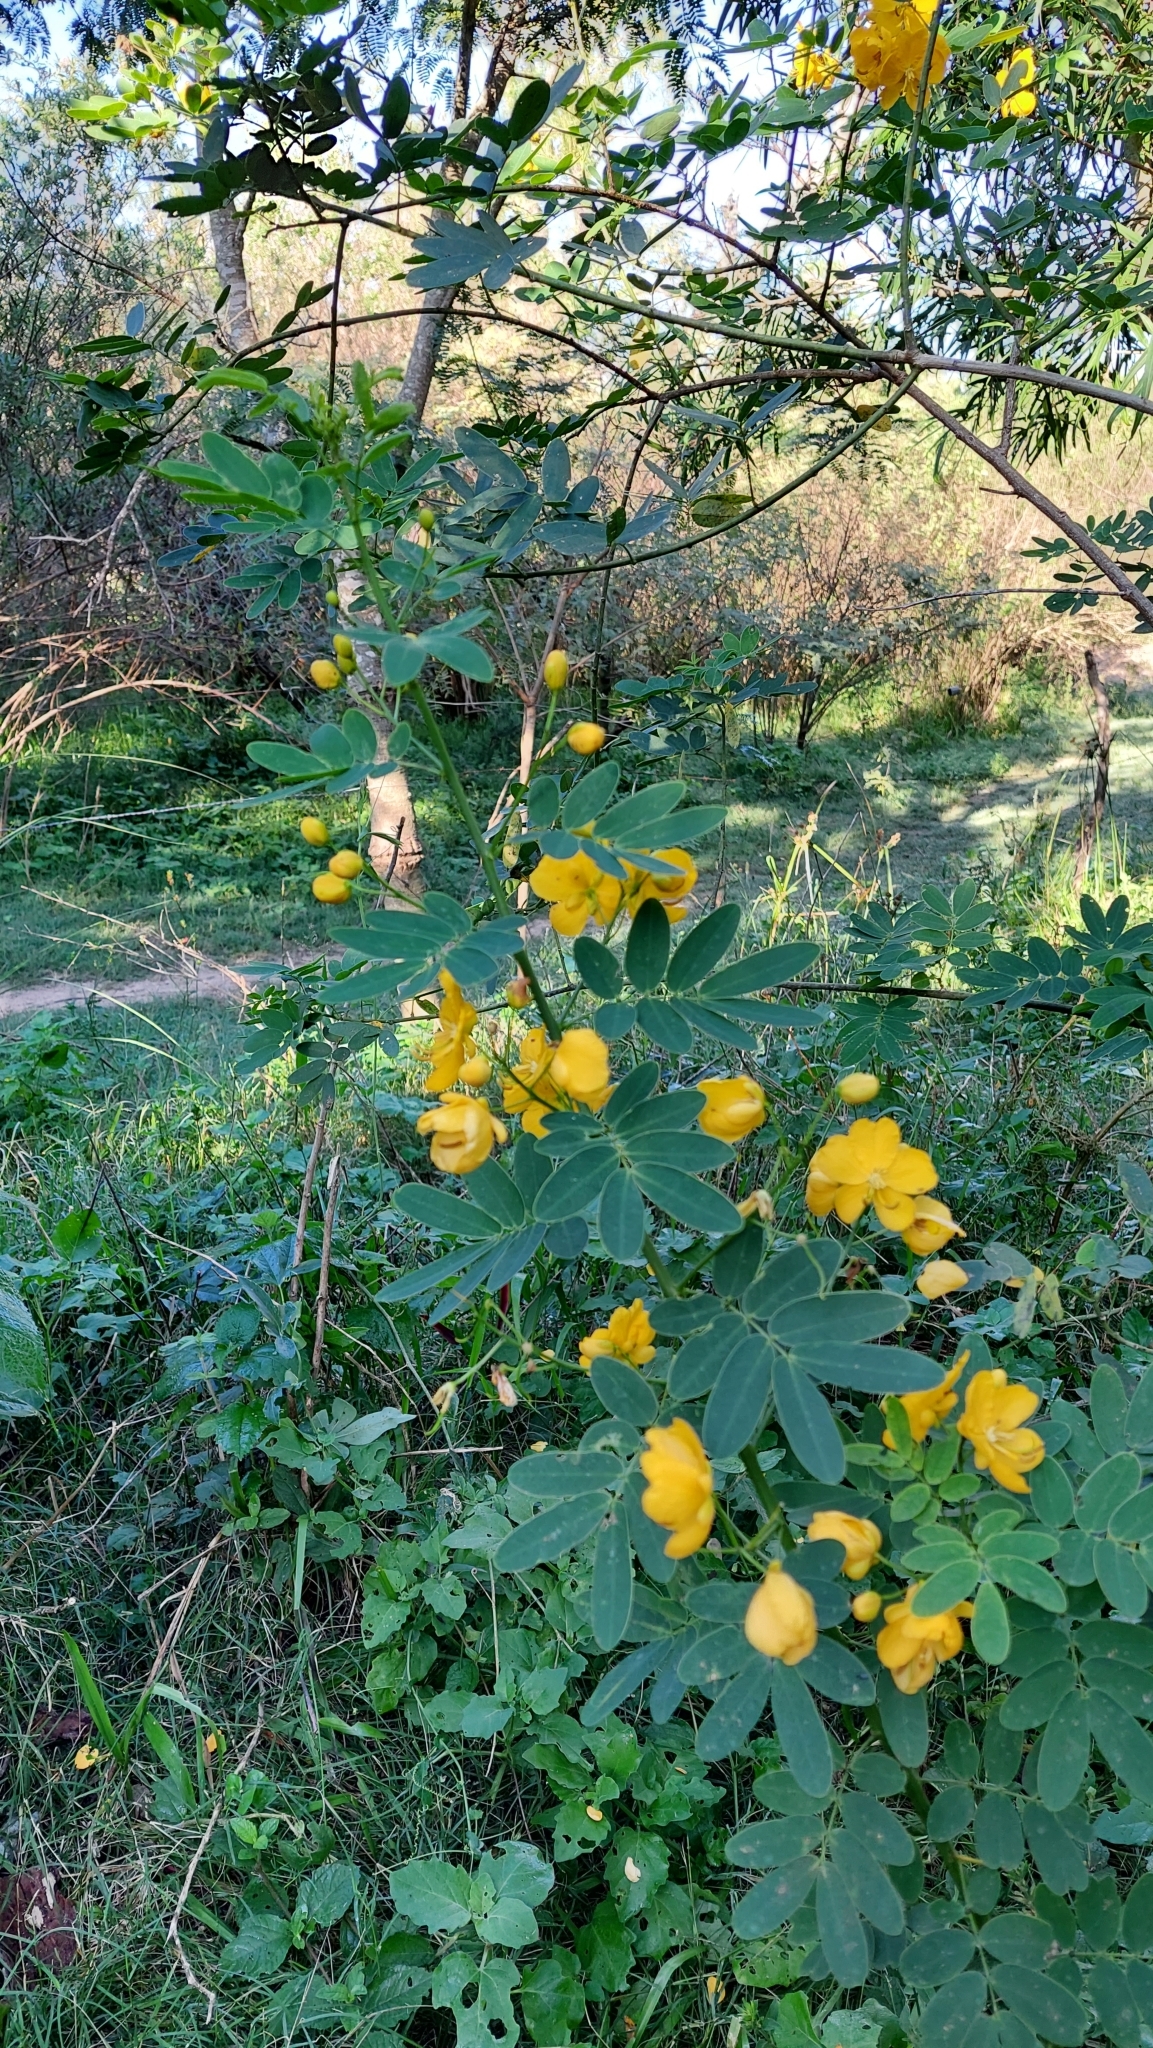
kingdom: Plantae
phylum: Tracheophyta
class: Magnoliopsida
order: Fabales
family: Fabaceae
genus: Senna
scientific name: Senna pendula
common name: Easter cassia
